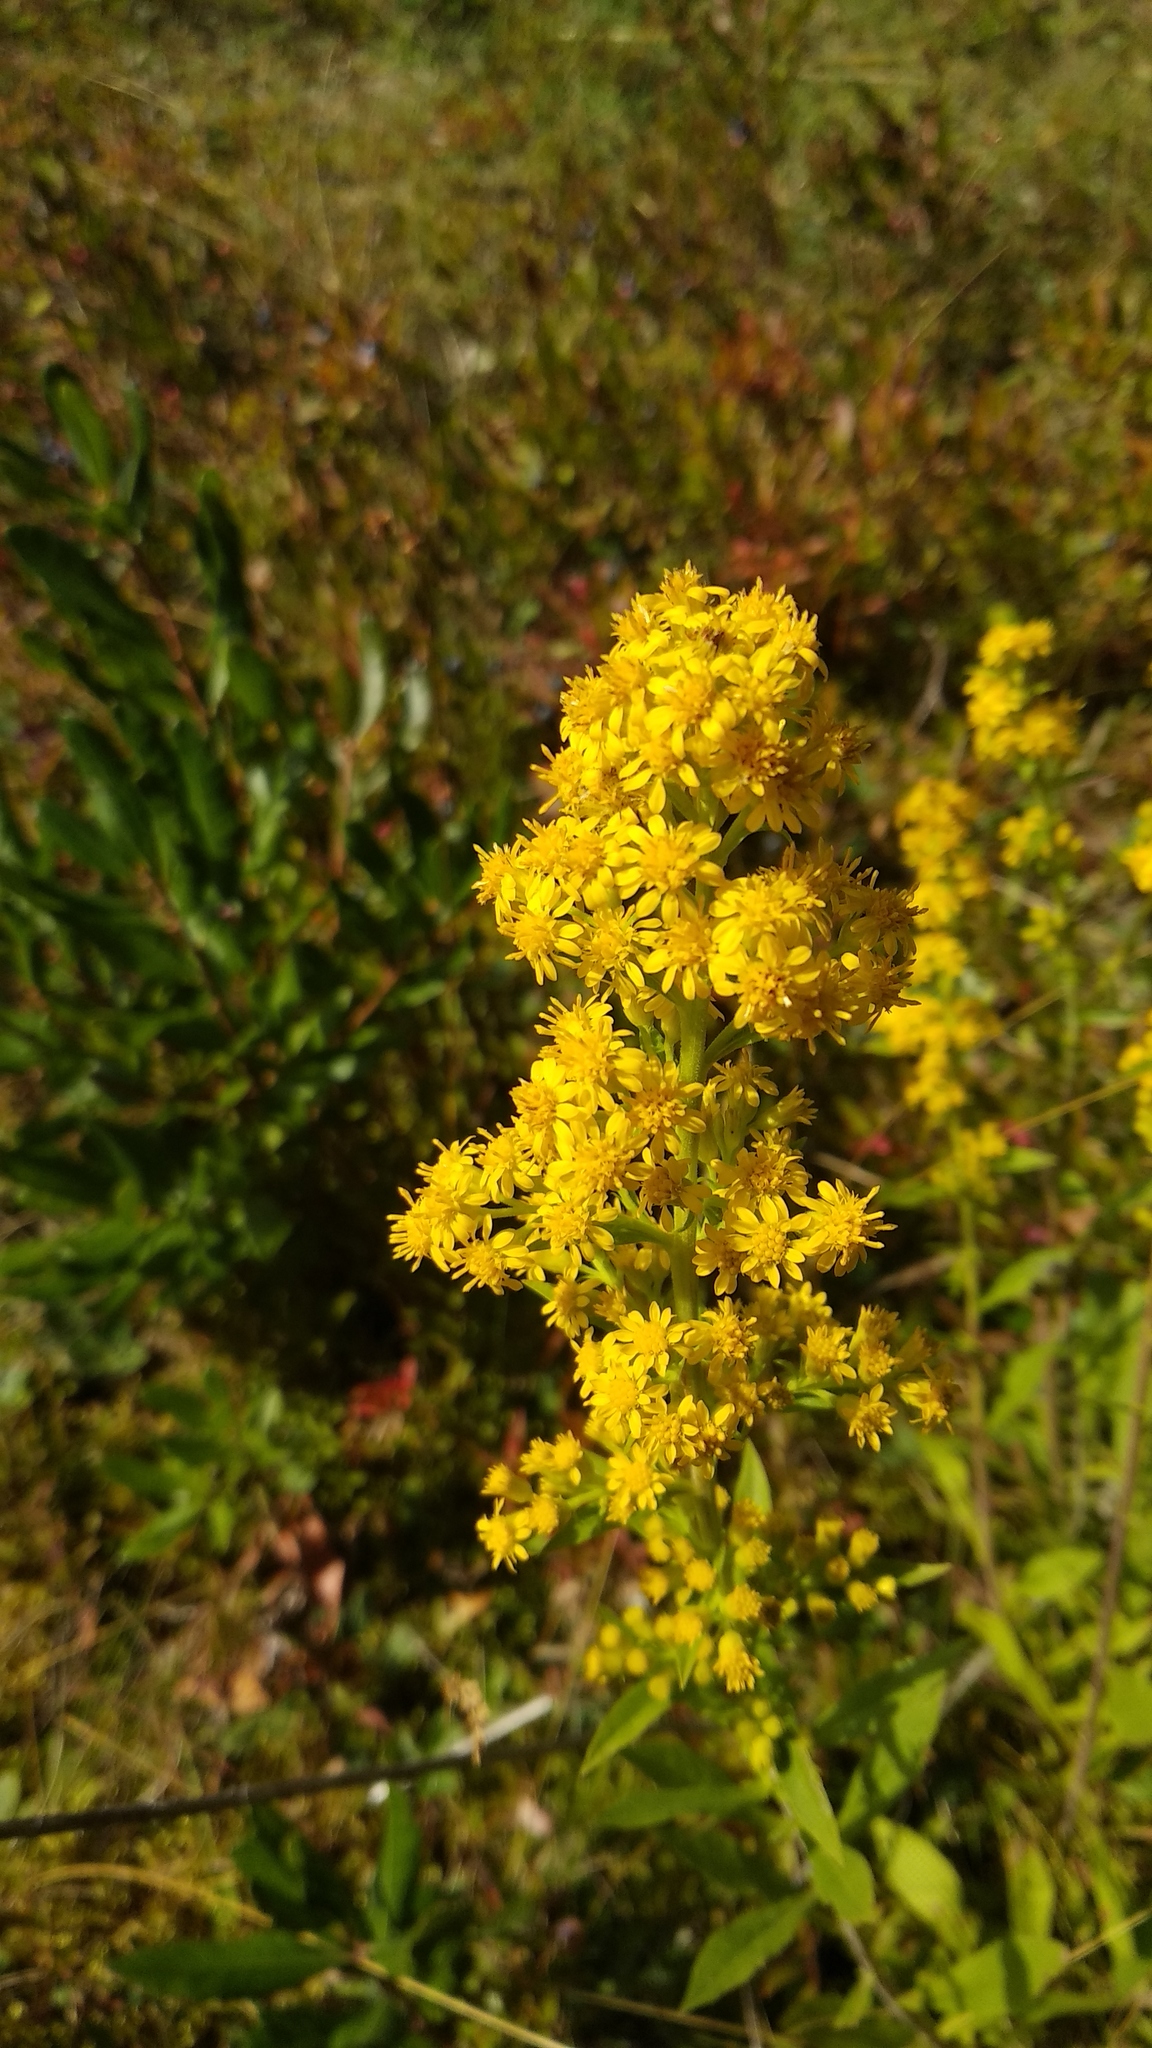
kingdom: Plantae
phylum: Tracheophyta
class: Magnoliopsida
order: Asterales
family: Asteraceae
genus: Solidago
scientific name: Solidago puberula
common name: Downy goldenrod
